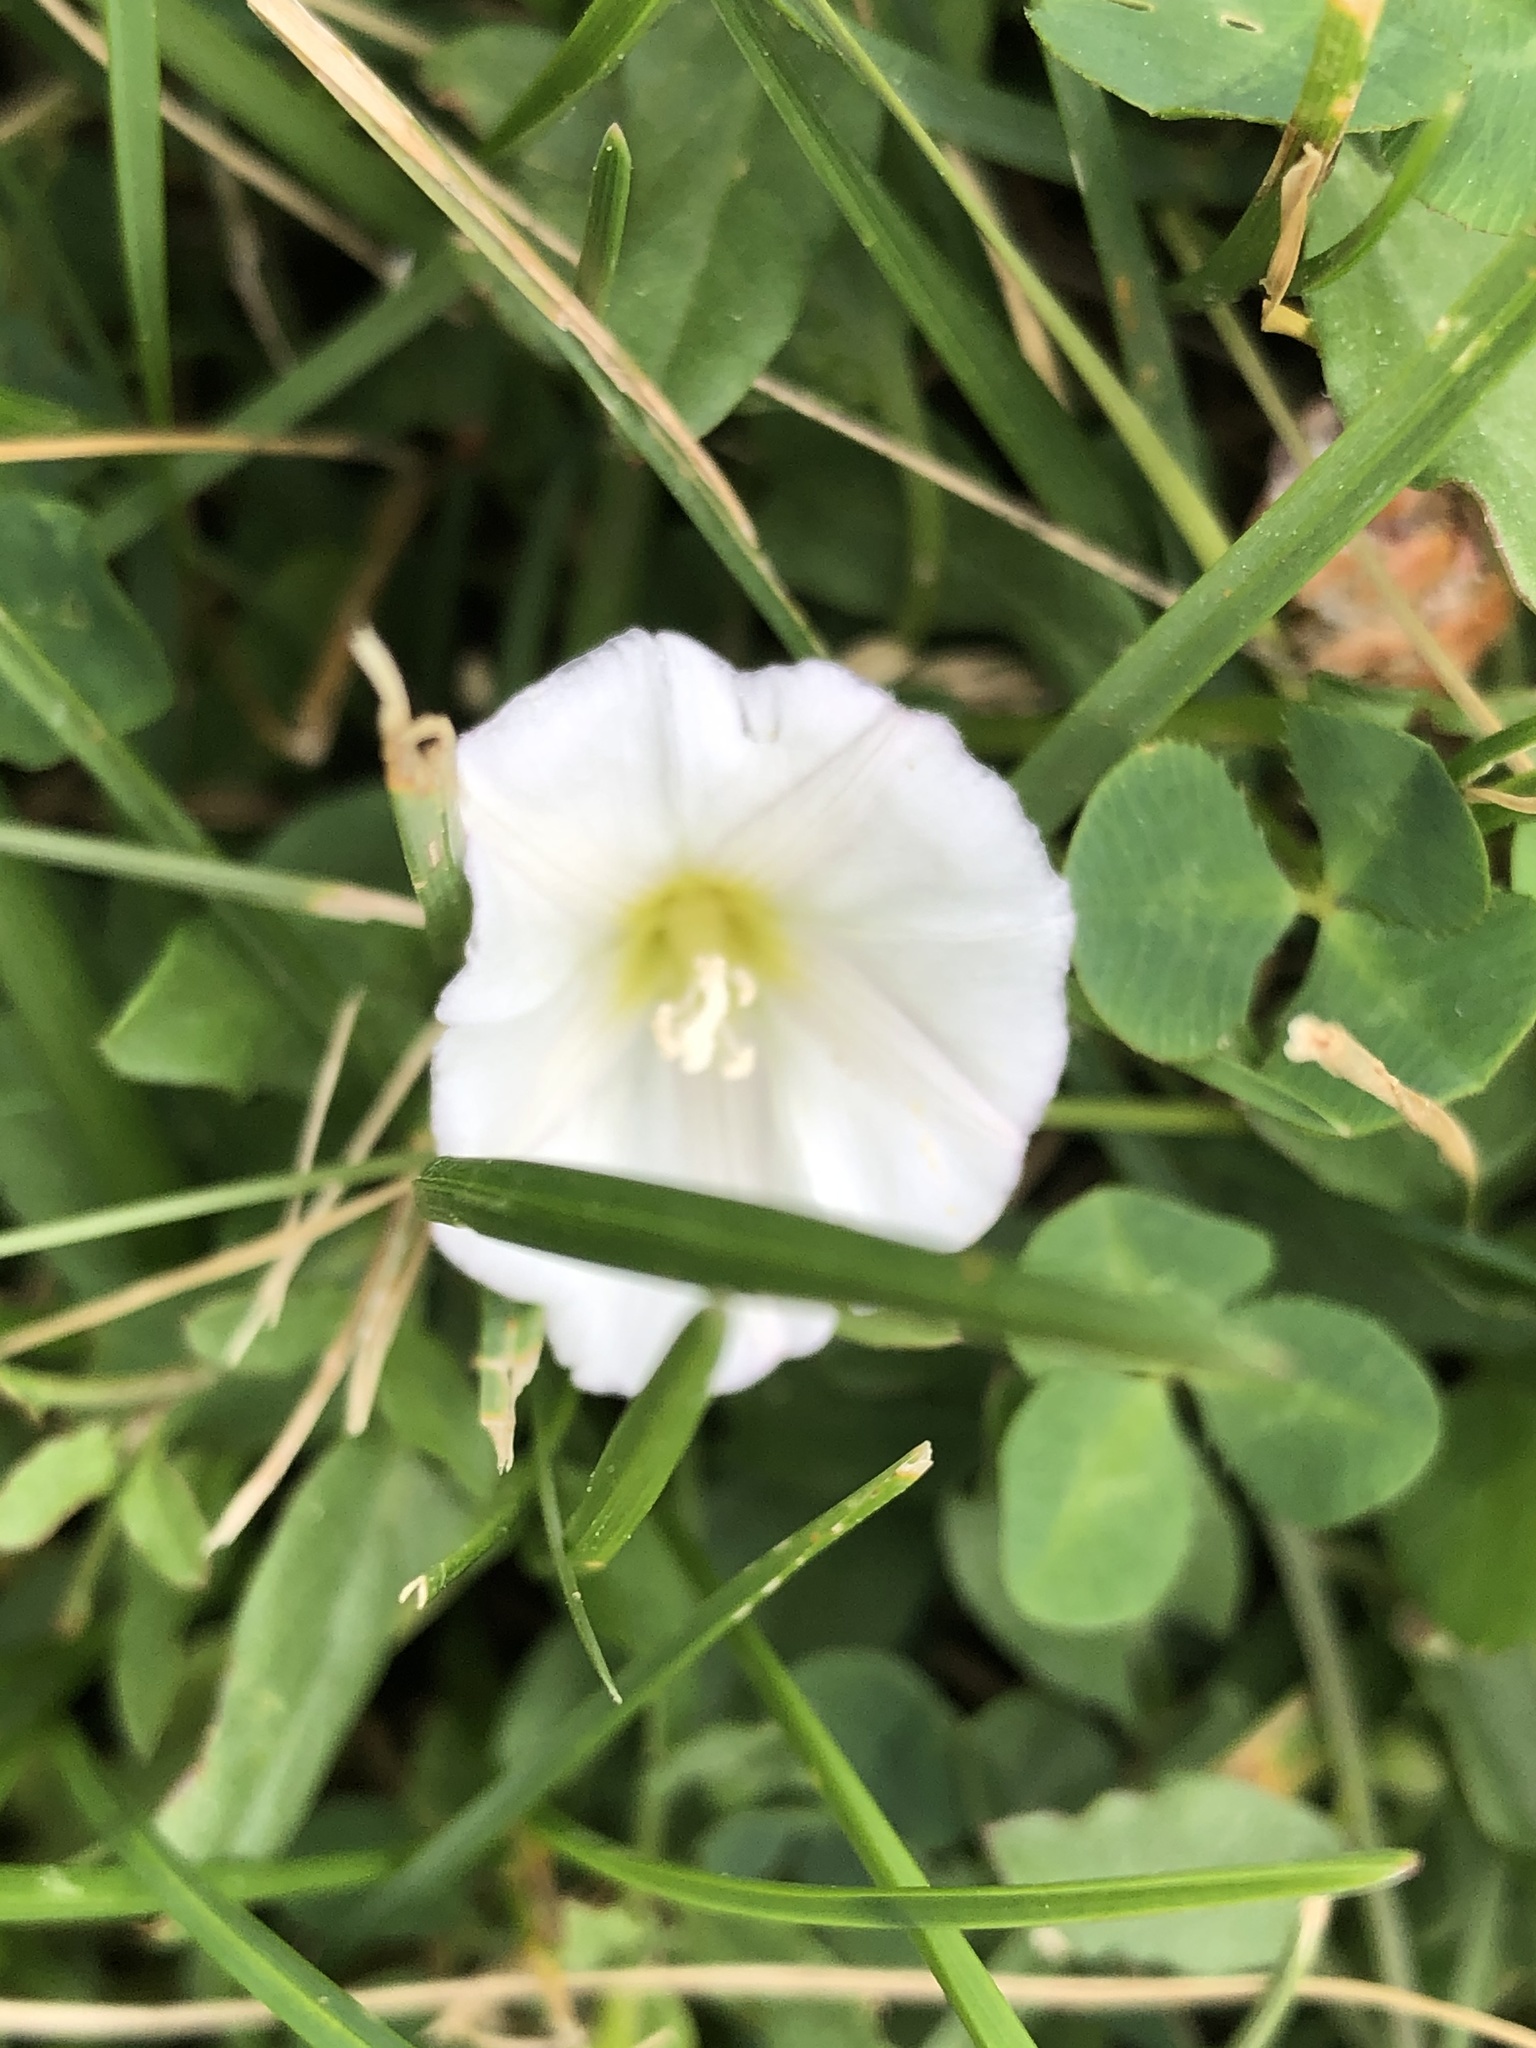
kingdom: Plantae
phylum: Tracheophyta
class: Magnoliopsida
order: Solanales
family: Convolvulaceae
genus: Convolvulus
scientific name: Convolvulus arvensis
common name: Field bindweed
